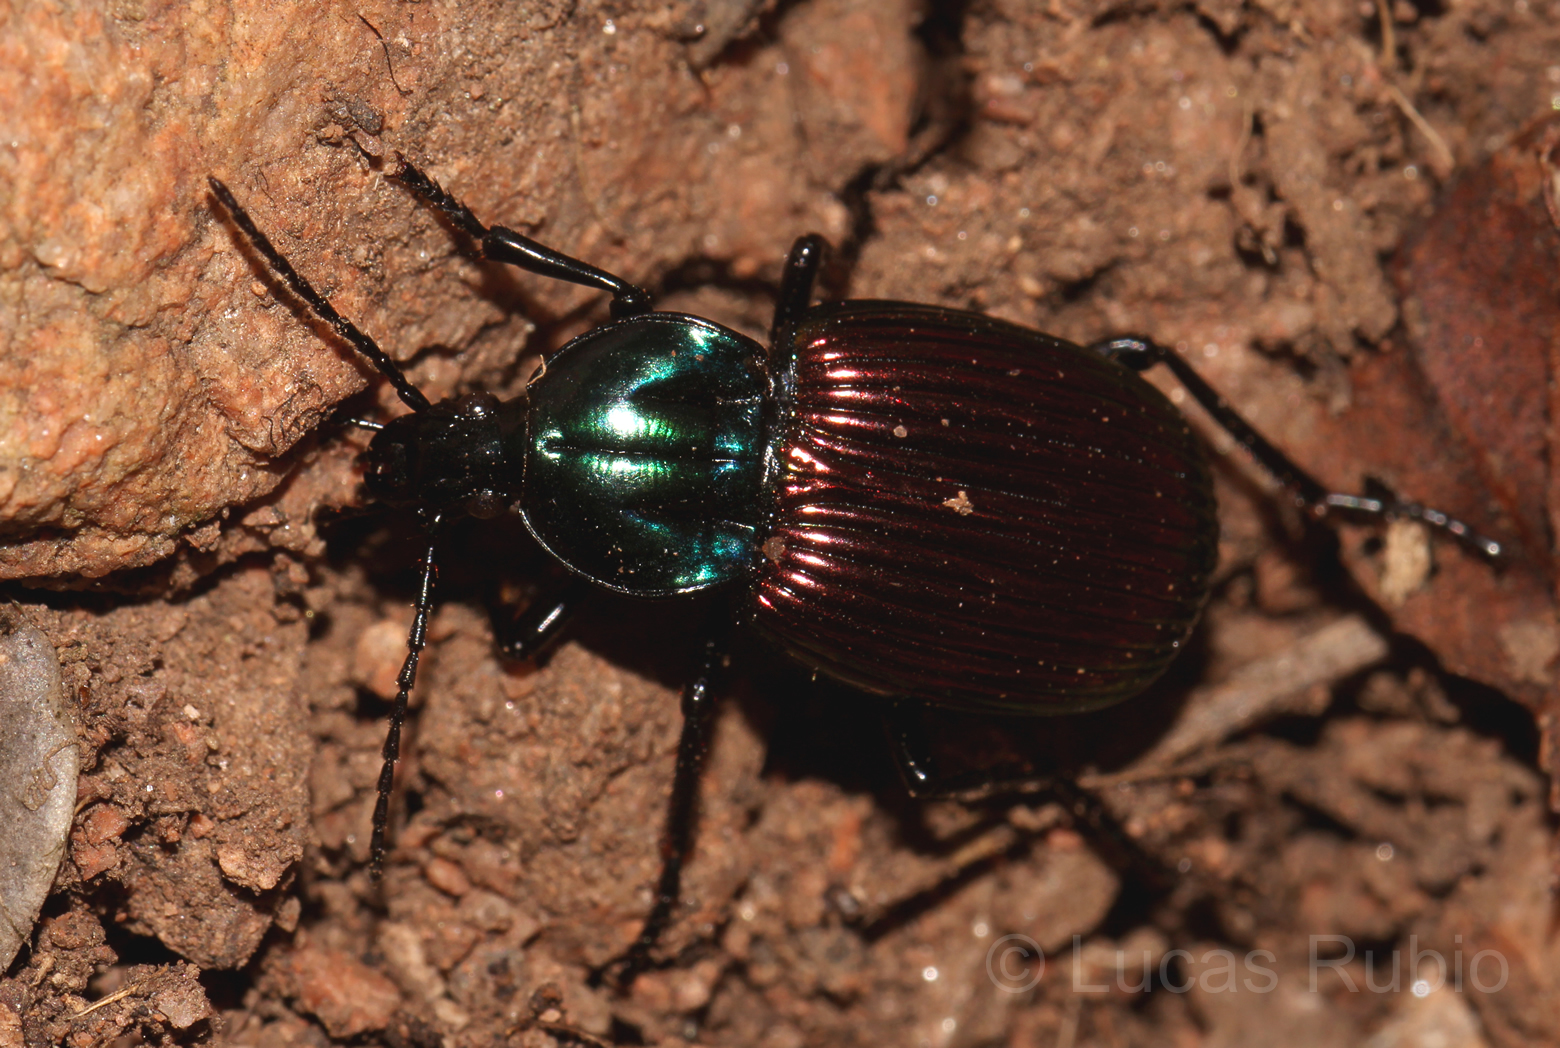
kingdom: Animalia
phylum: Arthropoda
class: Insecta
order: Coleoptera
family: Carabidae
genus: Brachygnathus
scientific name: Brachygnathus festivus
